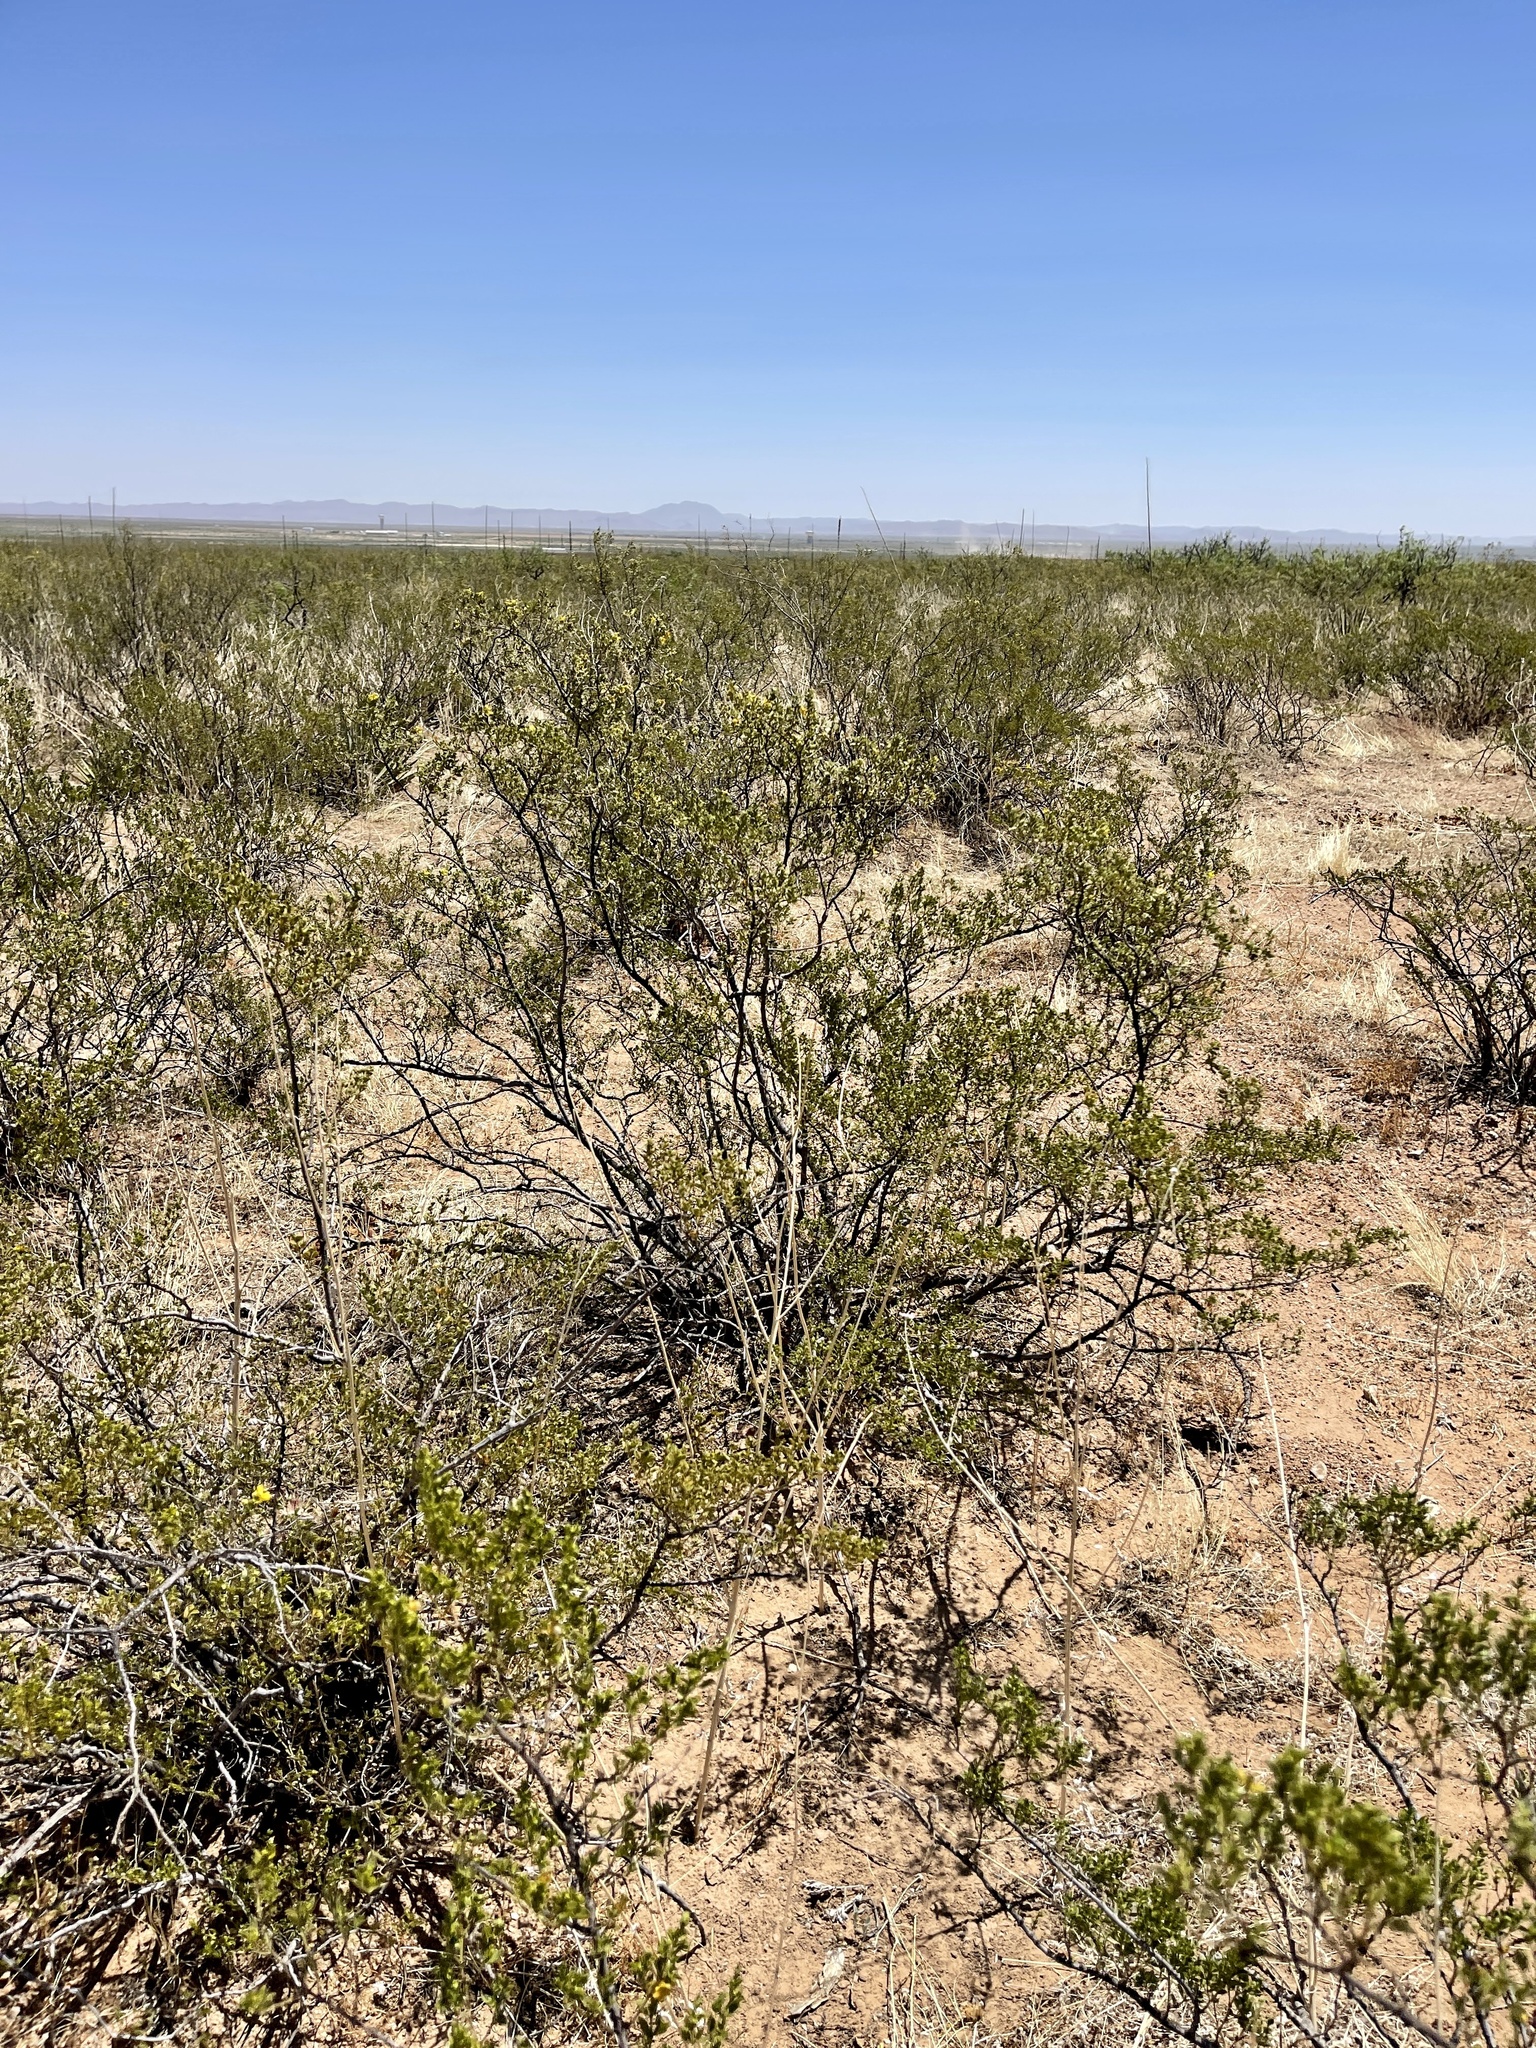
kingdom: Plantae
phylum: Tracheophyta
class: Magnoliopsida
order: Zygophyllales
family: Zygophyllaceae
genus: Larrea
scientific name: Larrea tridentata
